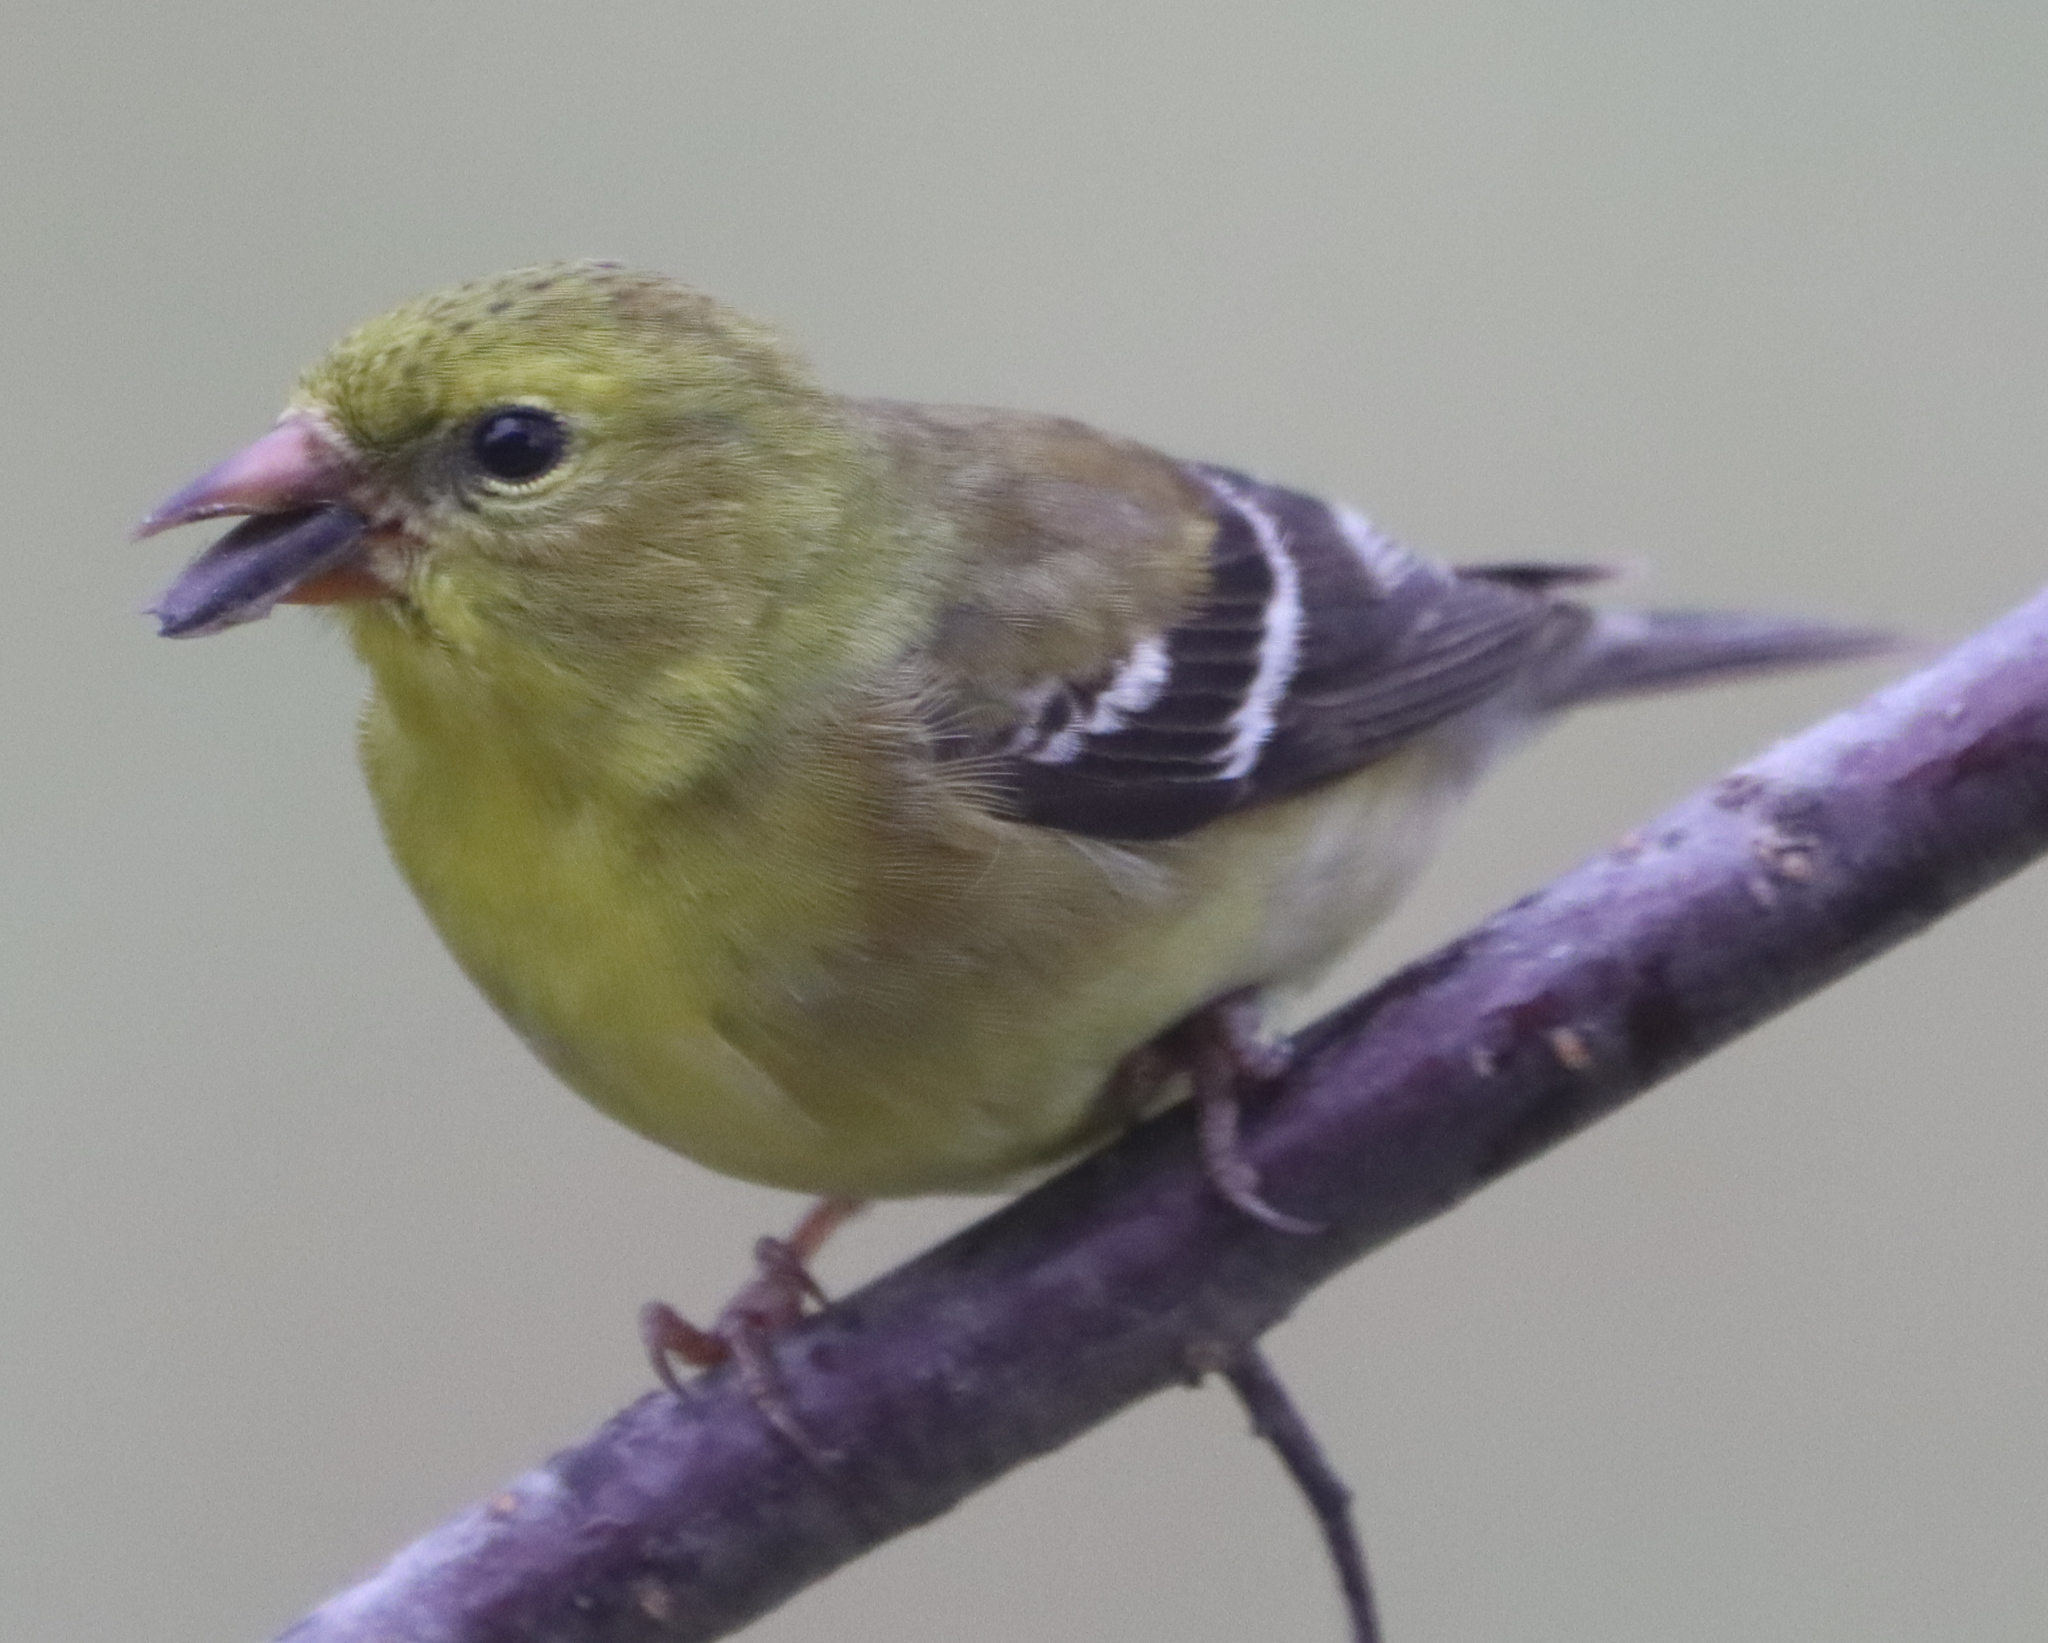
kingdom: Animalia
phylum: Chordata
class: Aves
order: Passeriformes
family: Fringillidae
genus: Spinus
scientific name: Spinus tristis
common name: American goldfinch
